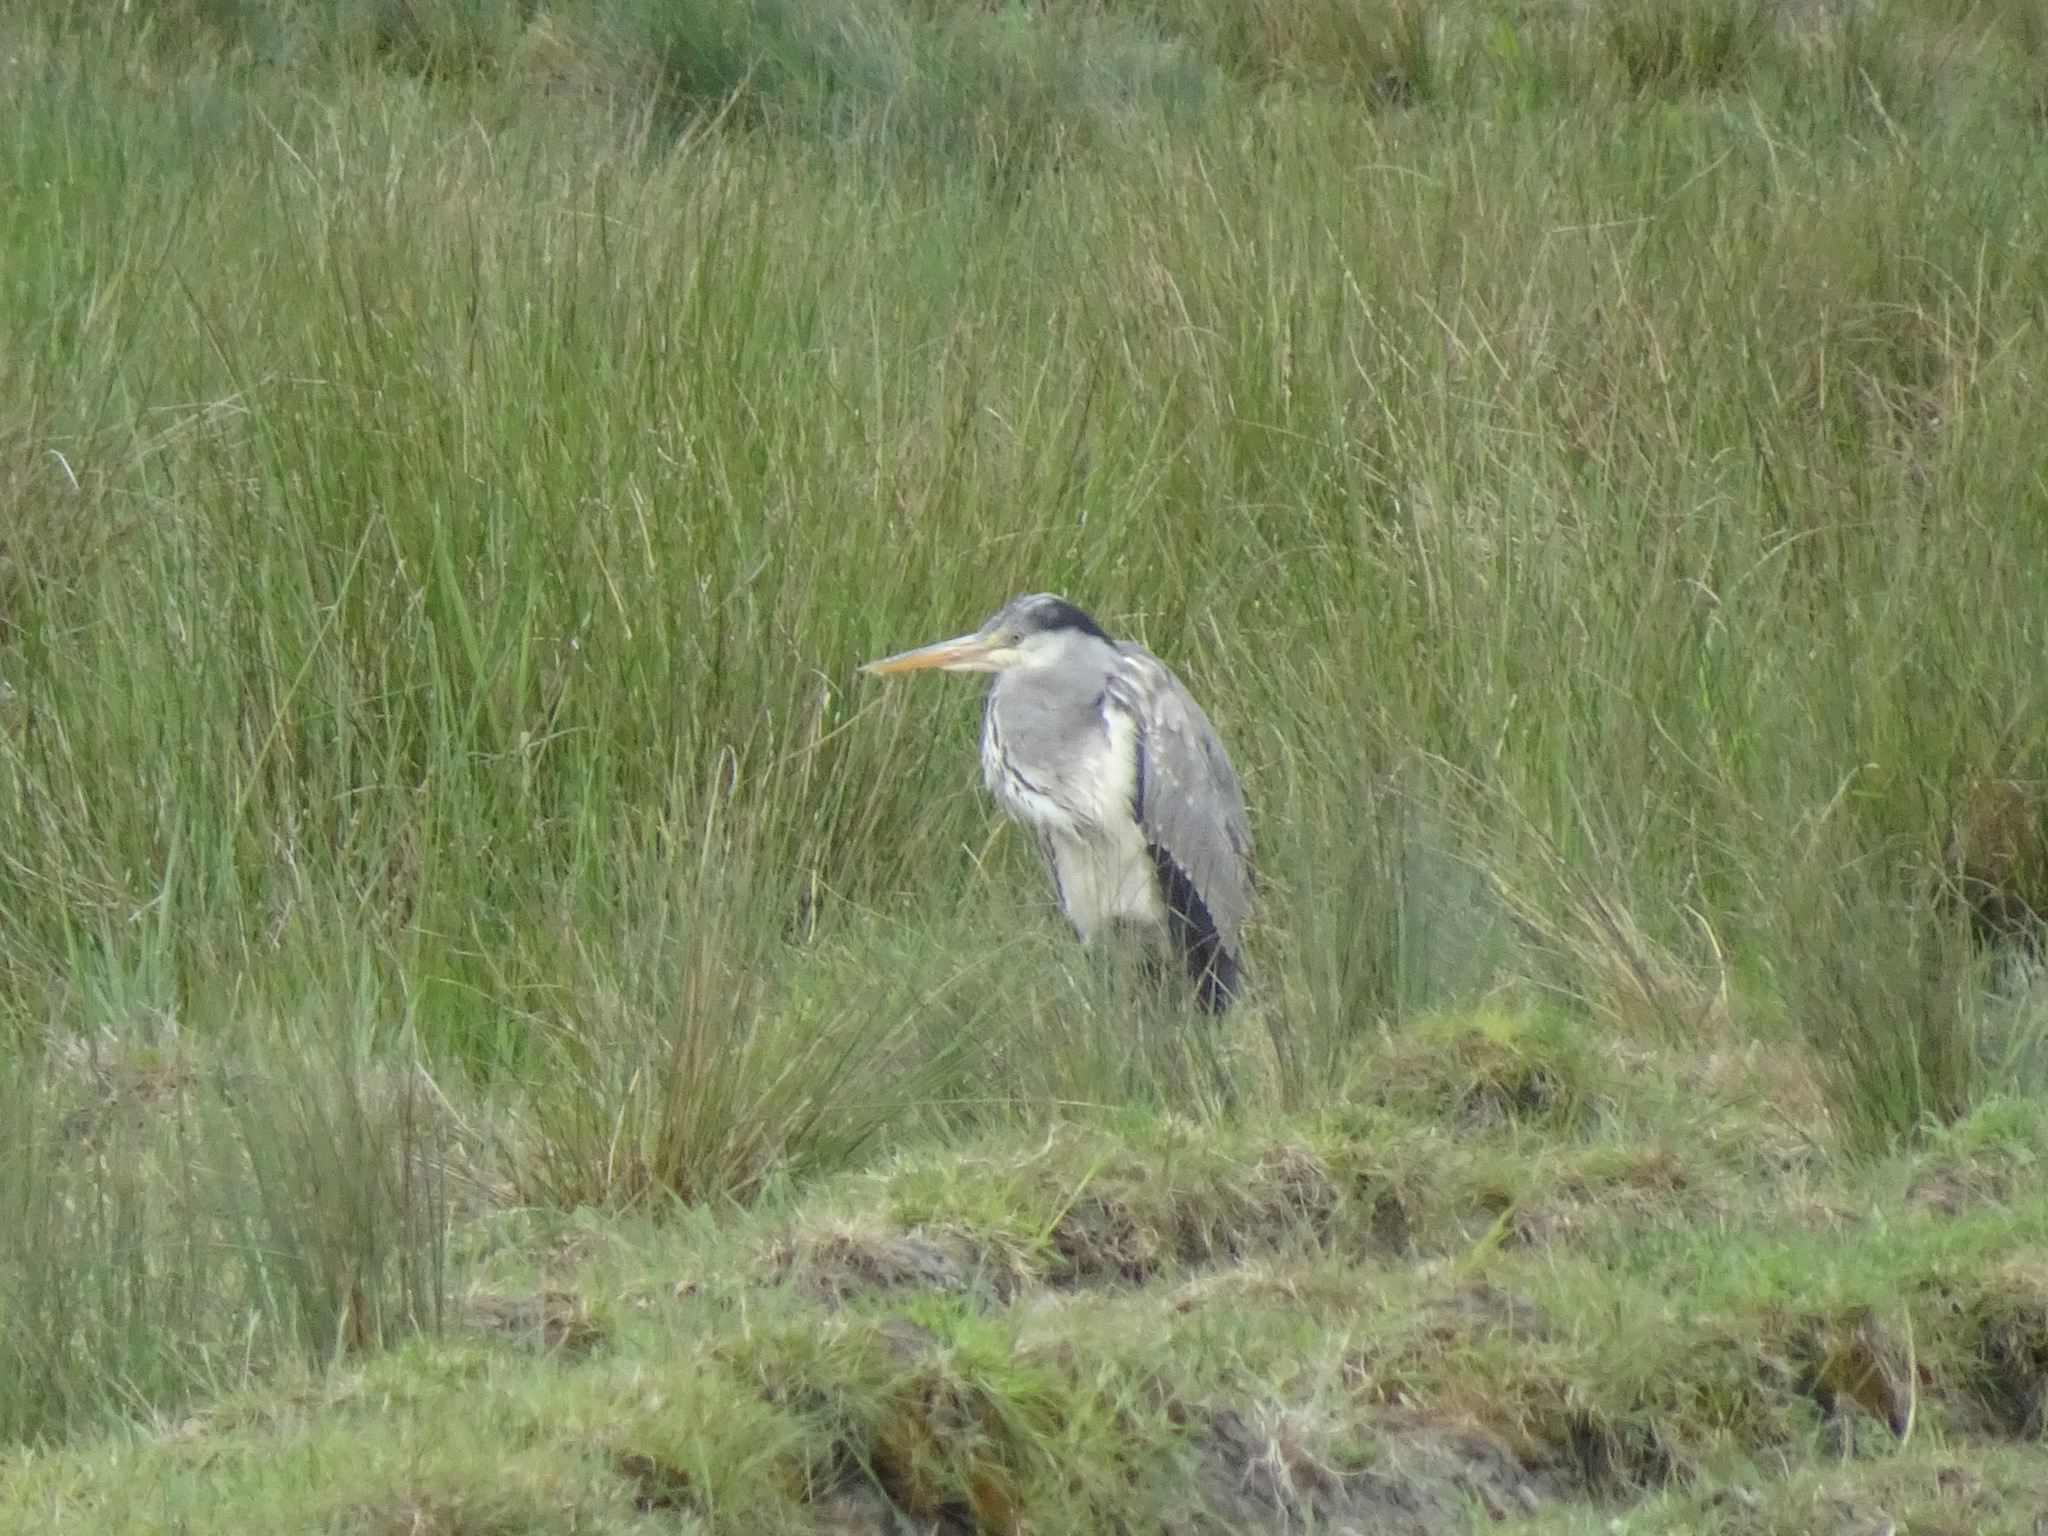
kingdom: Animalia
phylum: Chordata
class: Aves
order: Pelecaniformes
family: Ardeidae
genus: Ardea
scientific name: Ardea cinerea
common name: Grey heron
